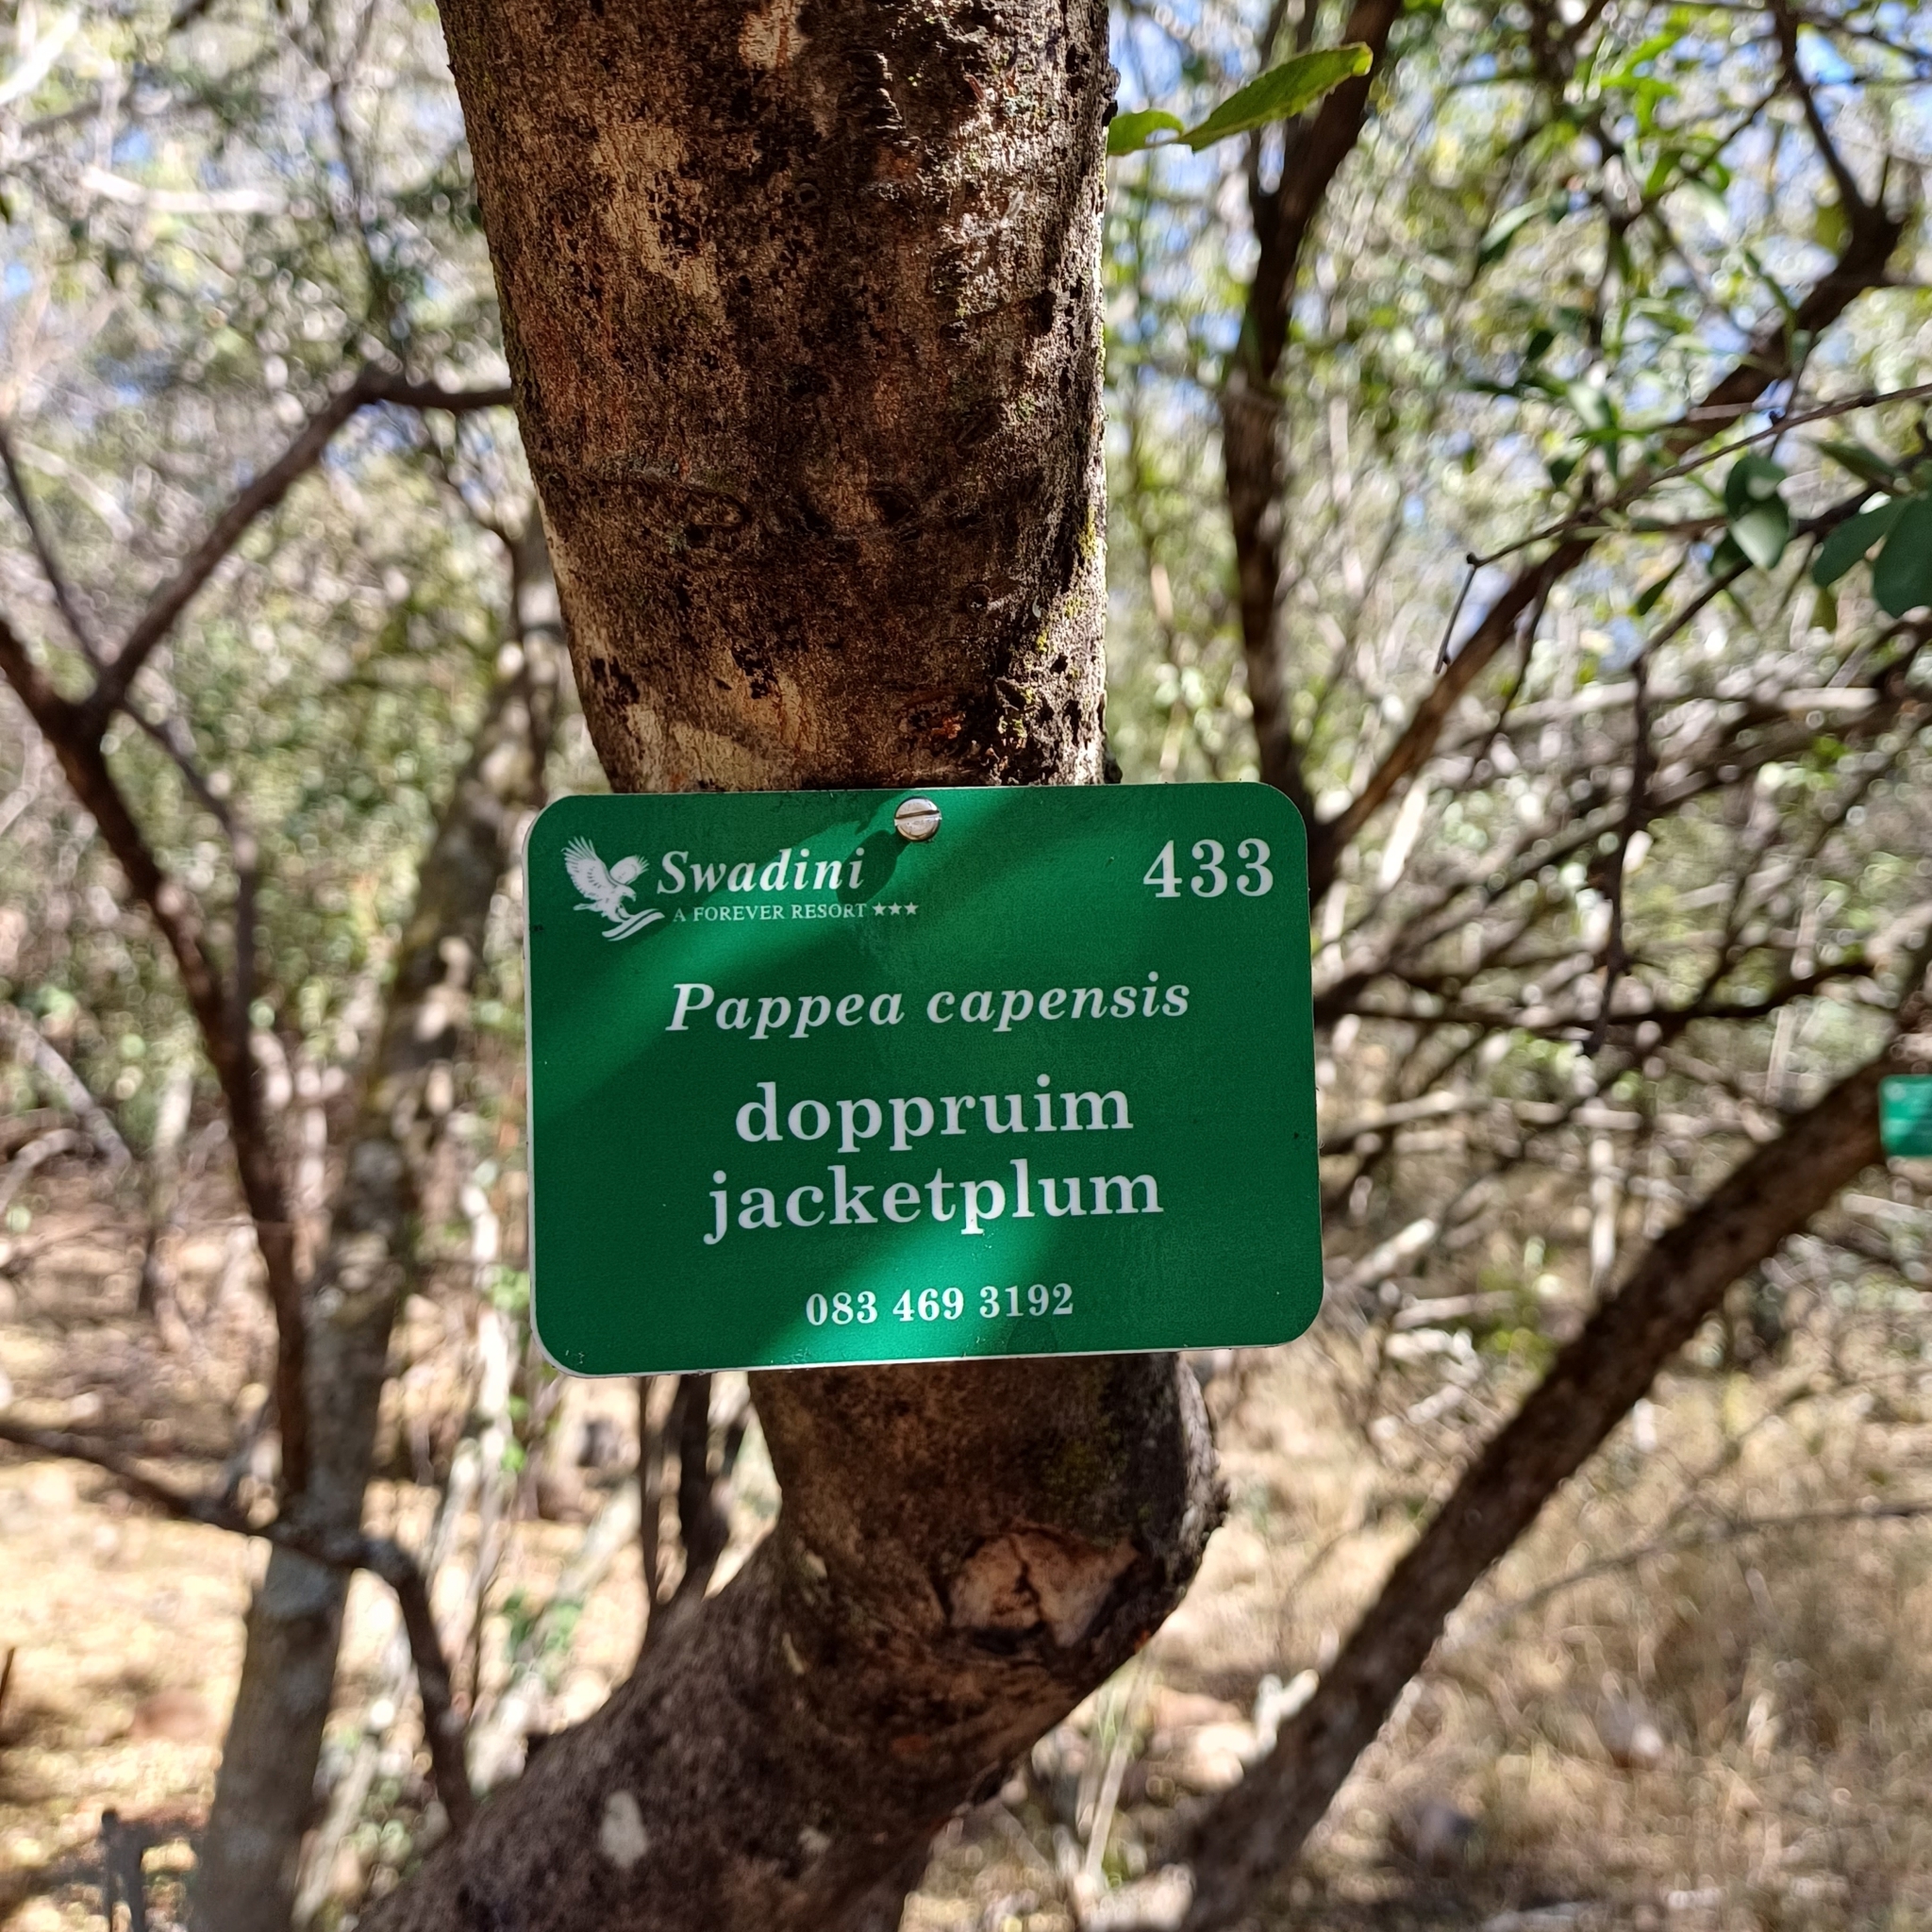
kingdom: Plantae
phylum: Tracheophyta
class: Magnoliopsida
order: Sapindales
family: Sapindaceae
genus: Pappea
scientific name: Pappea capensis
